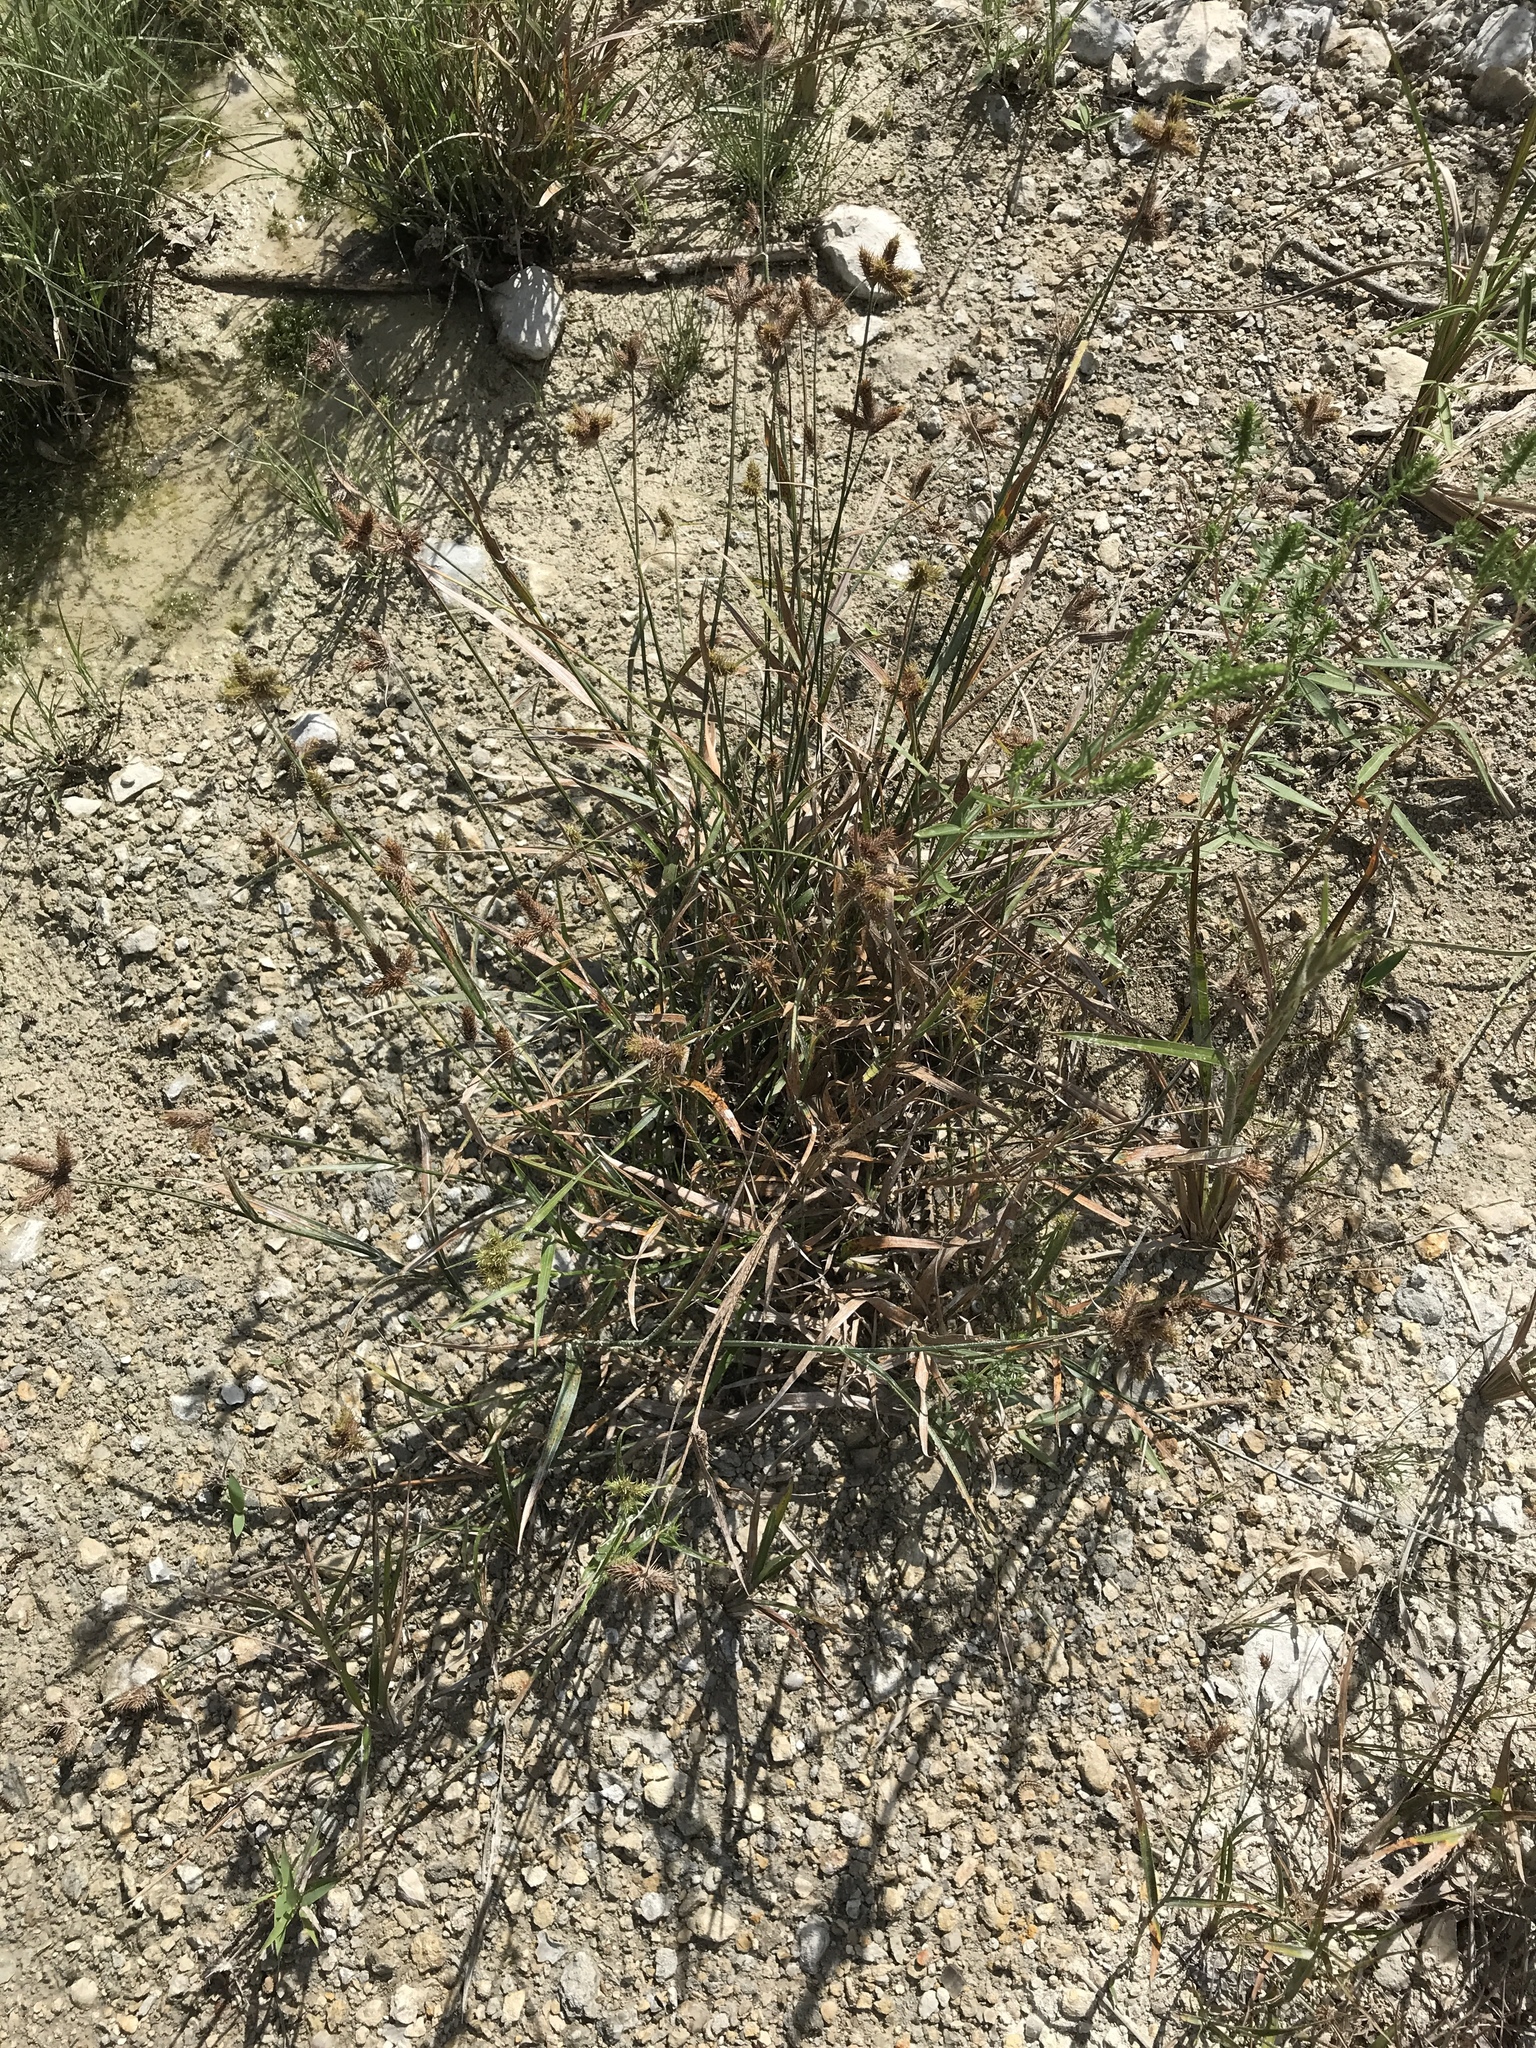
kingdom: Plantae
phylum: Tracheophyta
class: Liliopsida
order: Poales
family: Cyperaceae
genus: Fuirena
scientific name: Fuirena simplex
